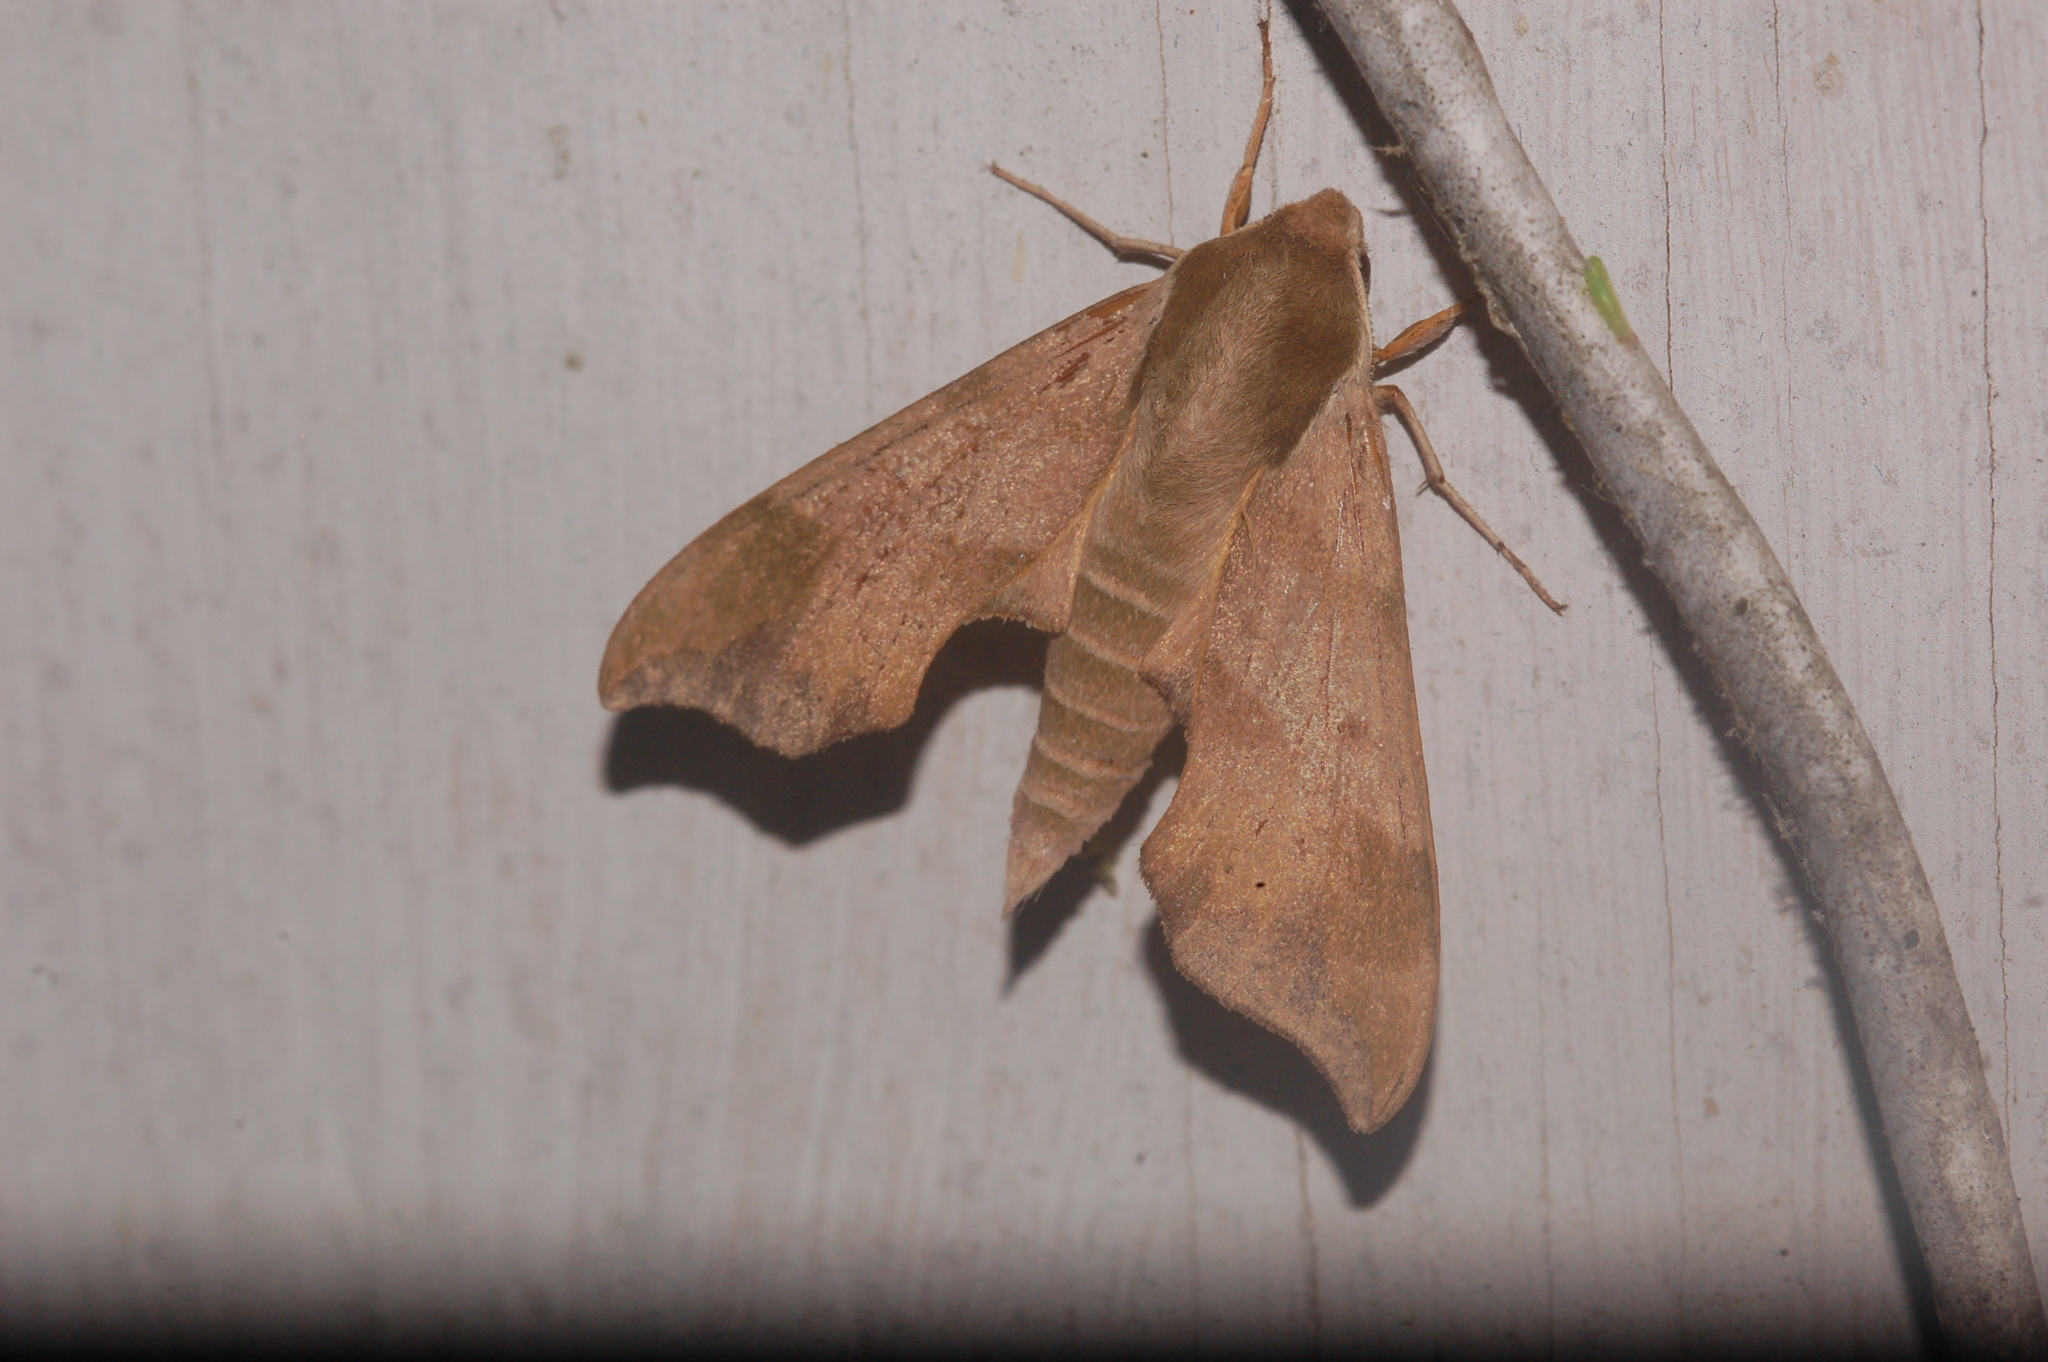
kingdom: Animalia
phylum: Arthropoda
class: Insecta
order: Lepidoptera
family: Sphingidae
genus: Darapsa
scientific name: Darapsa myron
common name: Hog sphinx
